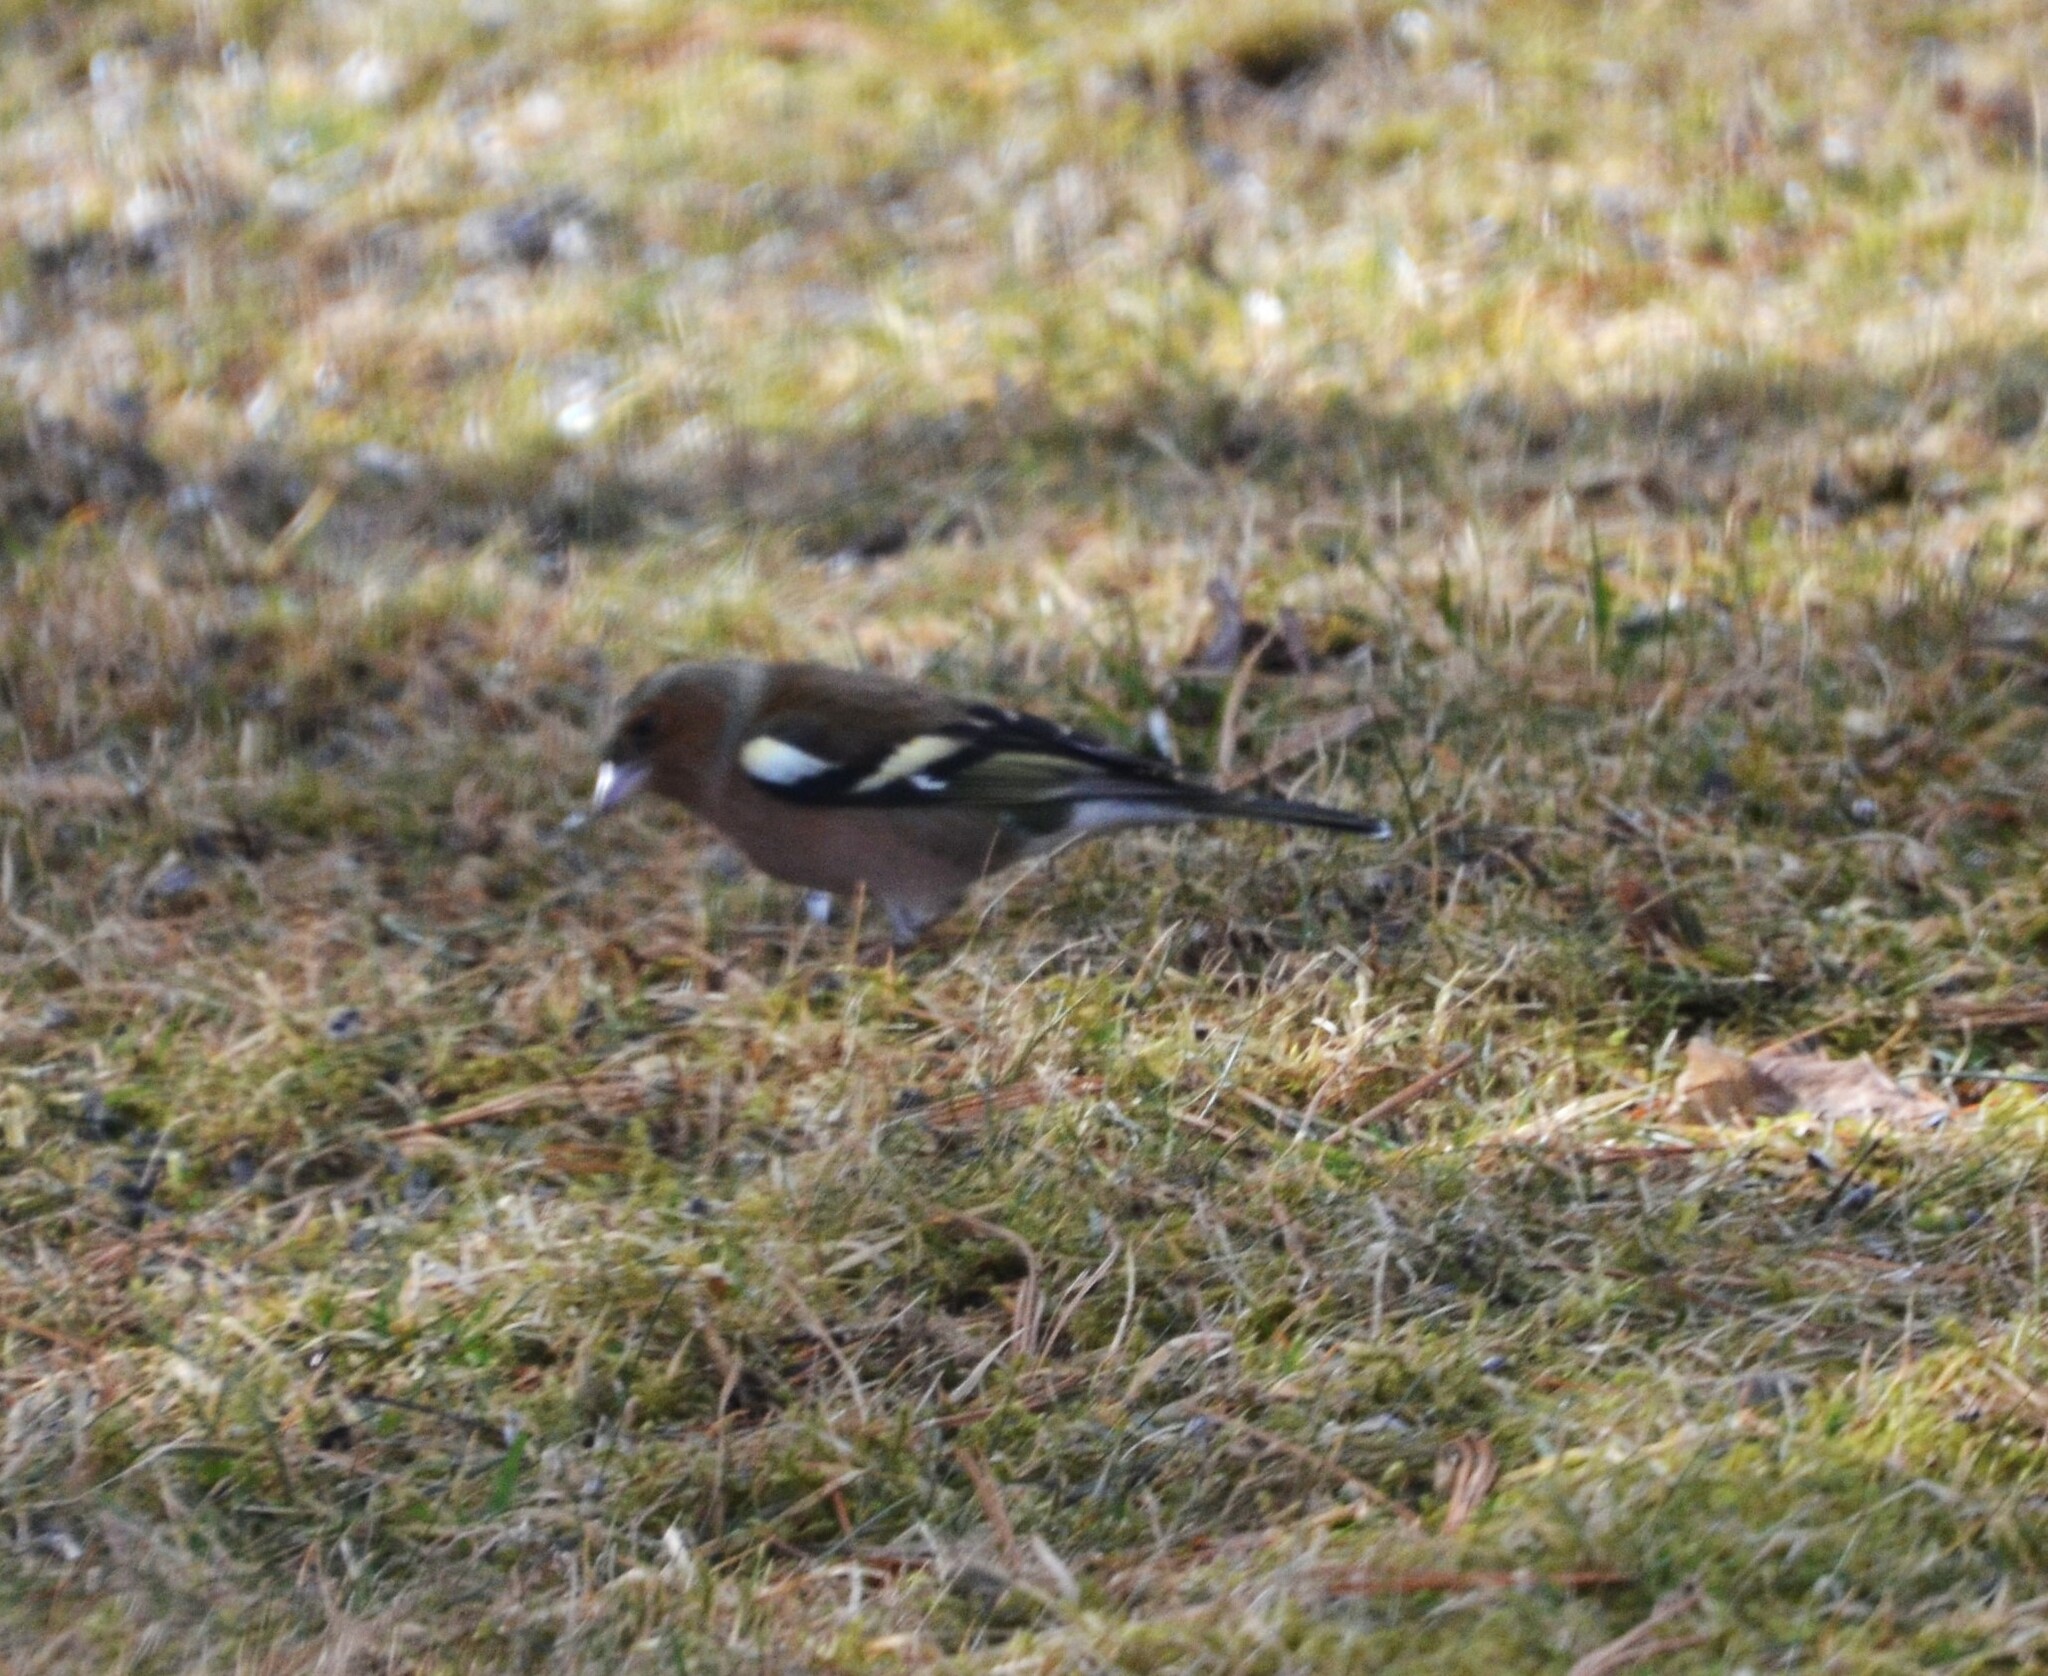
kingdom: Animalia
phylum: Chordata
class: Aves
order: Passeriformes
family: Fringillidae
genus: Fringilla
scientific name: Fringilla coelebs
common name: Common chaffinch
